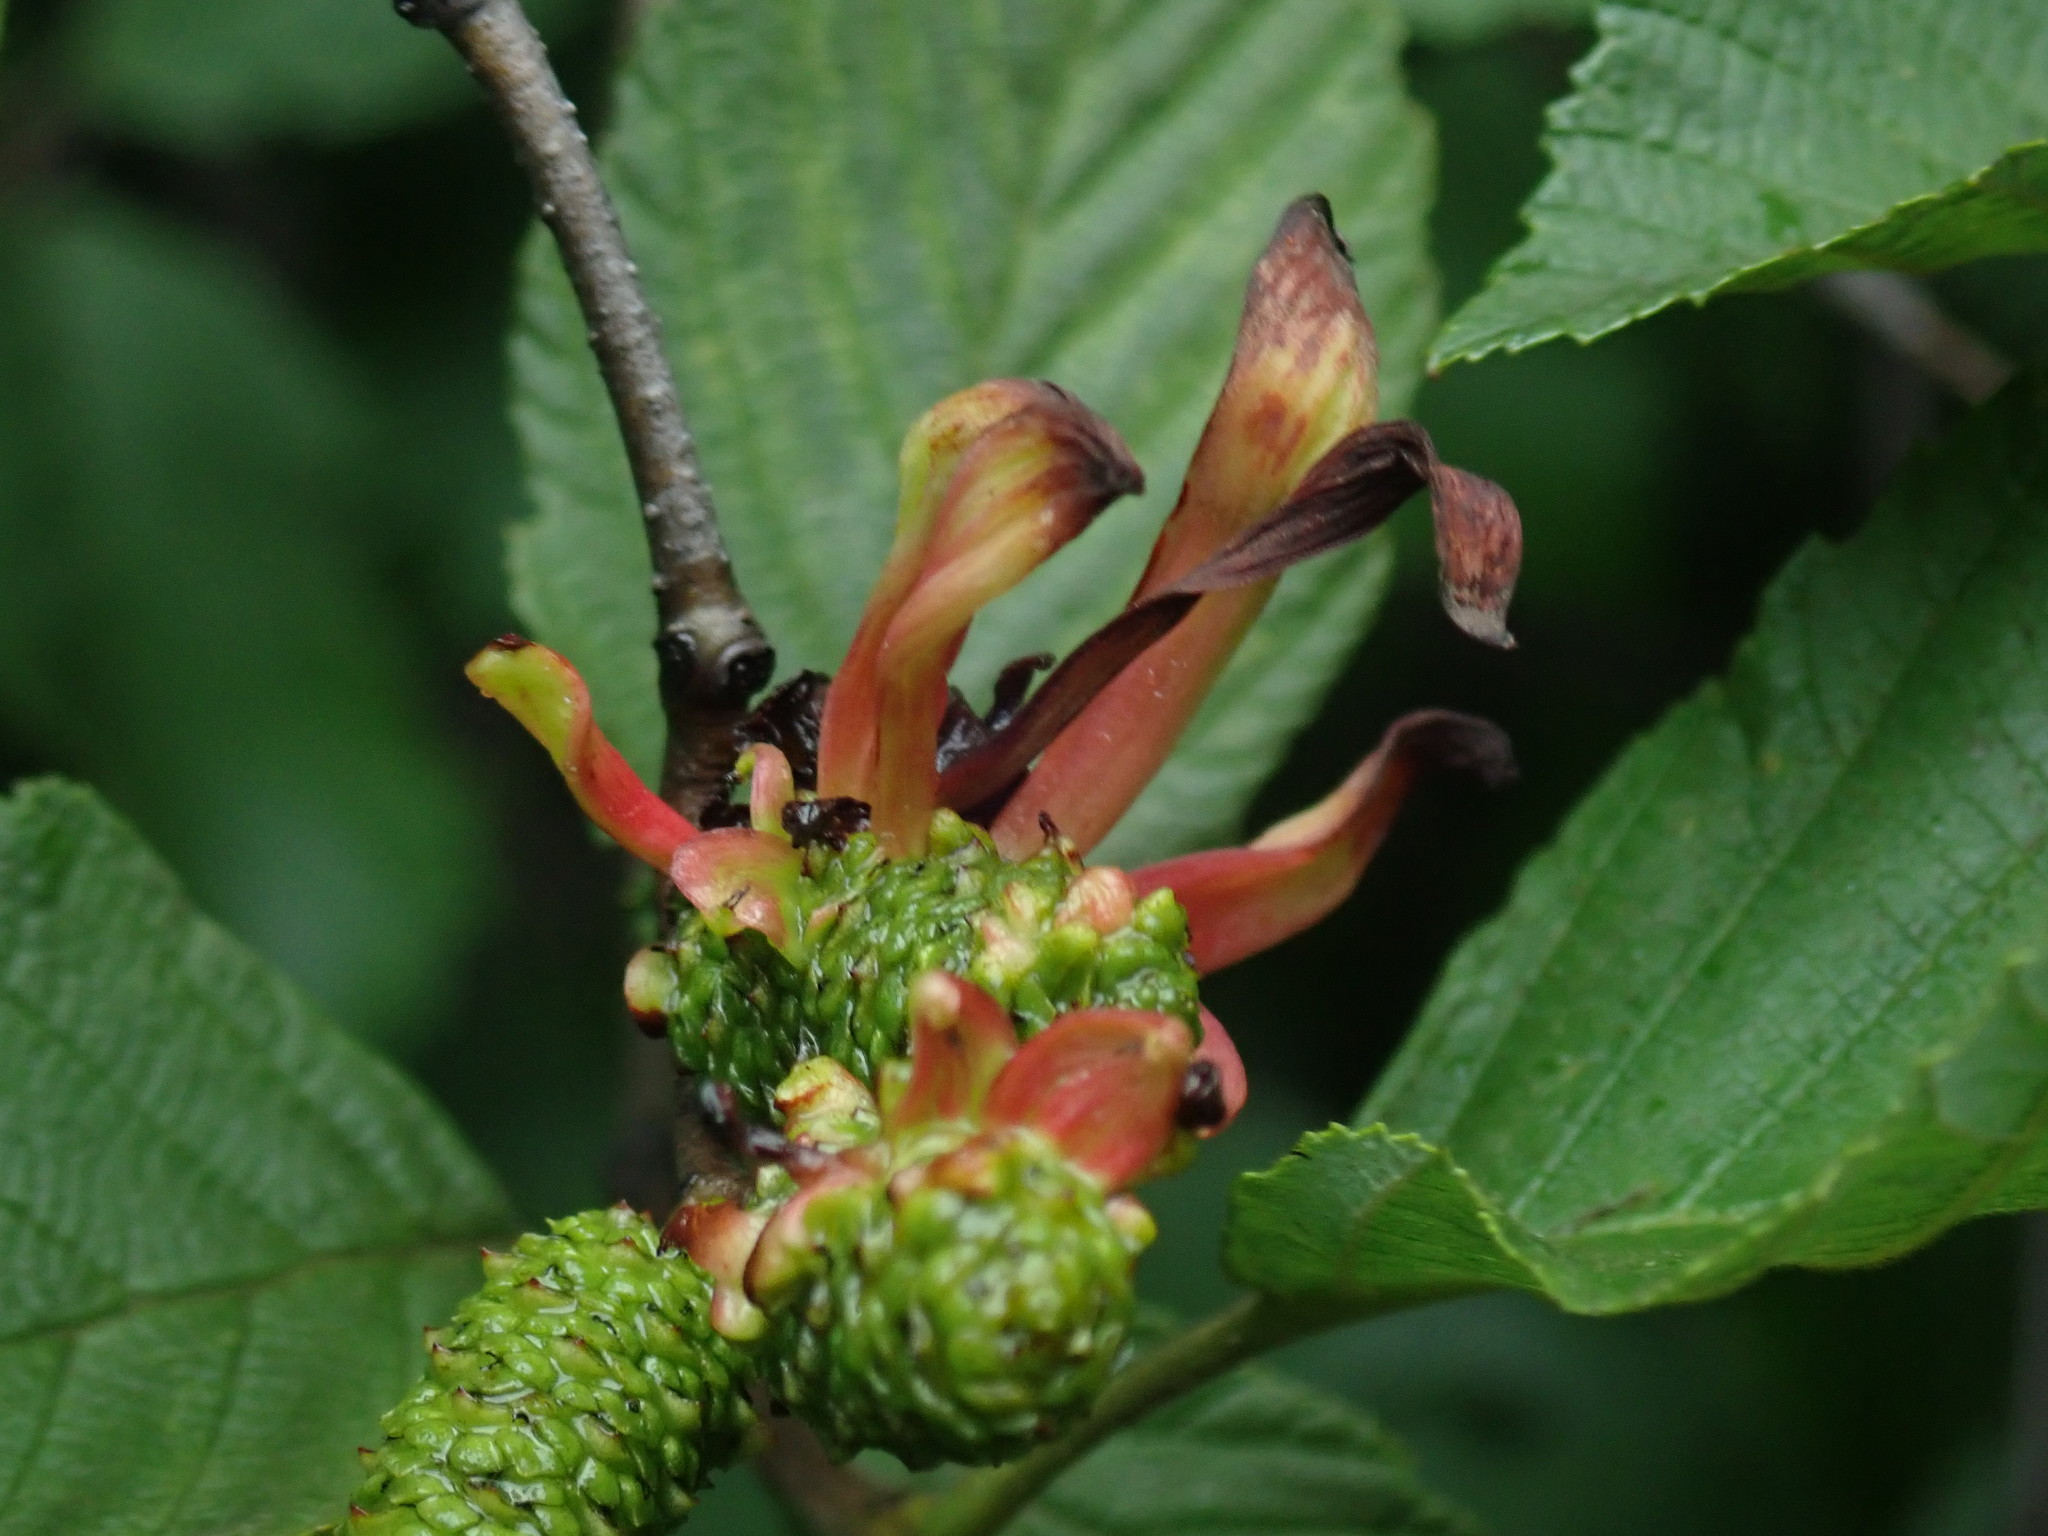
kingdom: Fungi
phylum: Ascomycota
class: Taphrinomycetes
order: Taphrinales
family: Taphrinaceae
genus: Taphrina
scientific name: Taphrina robinsoniana
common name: Eastern american alder tongue gall fungus
